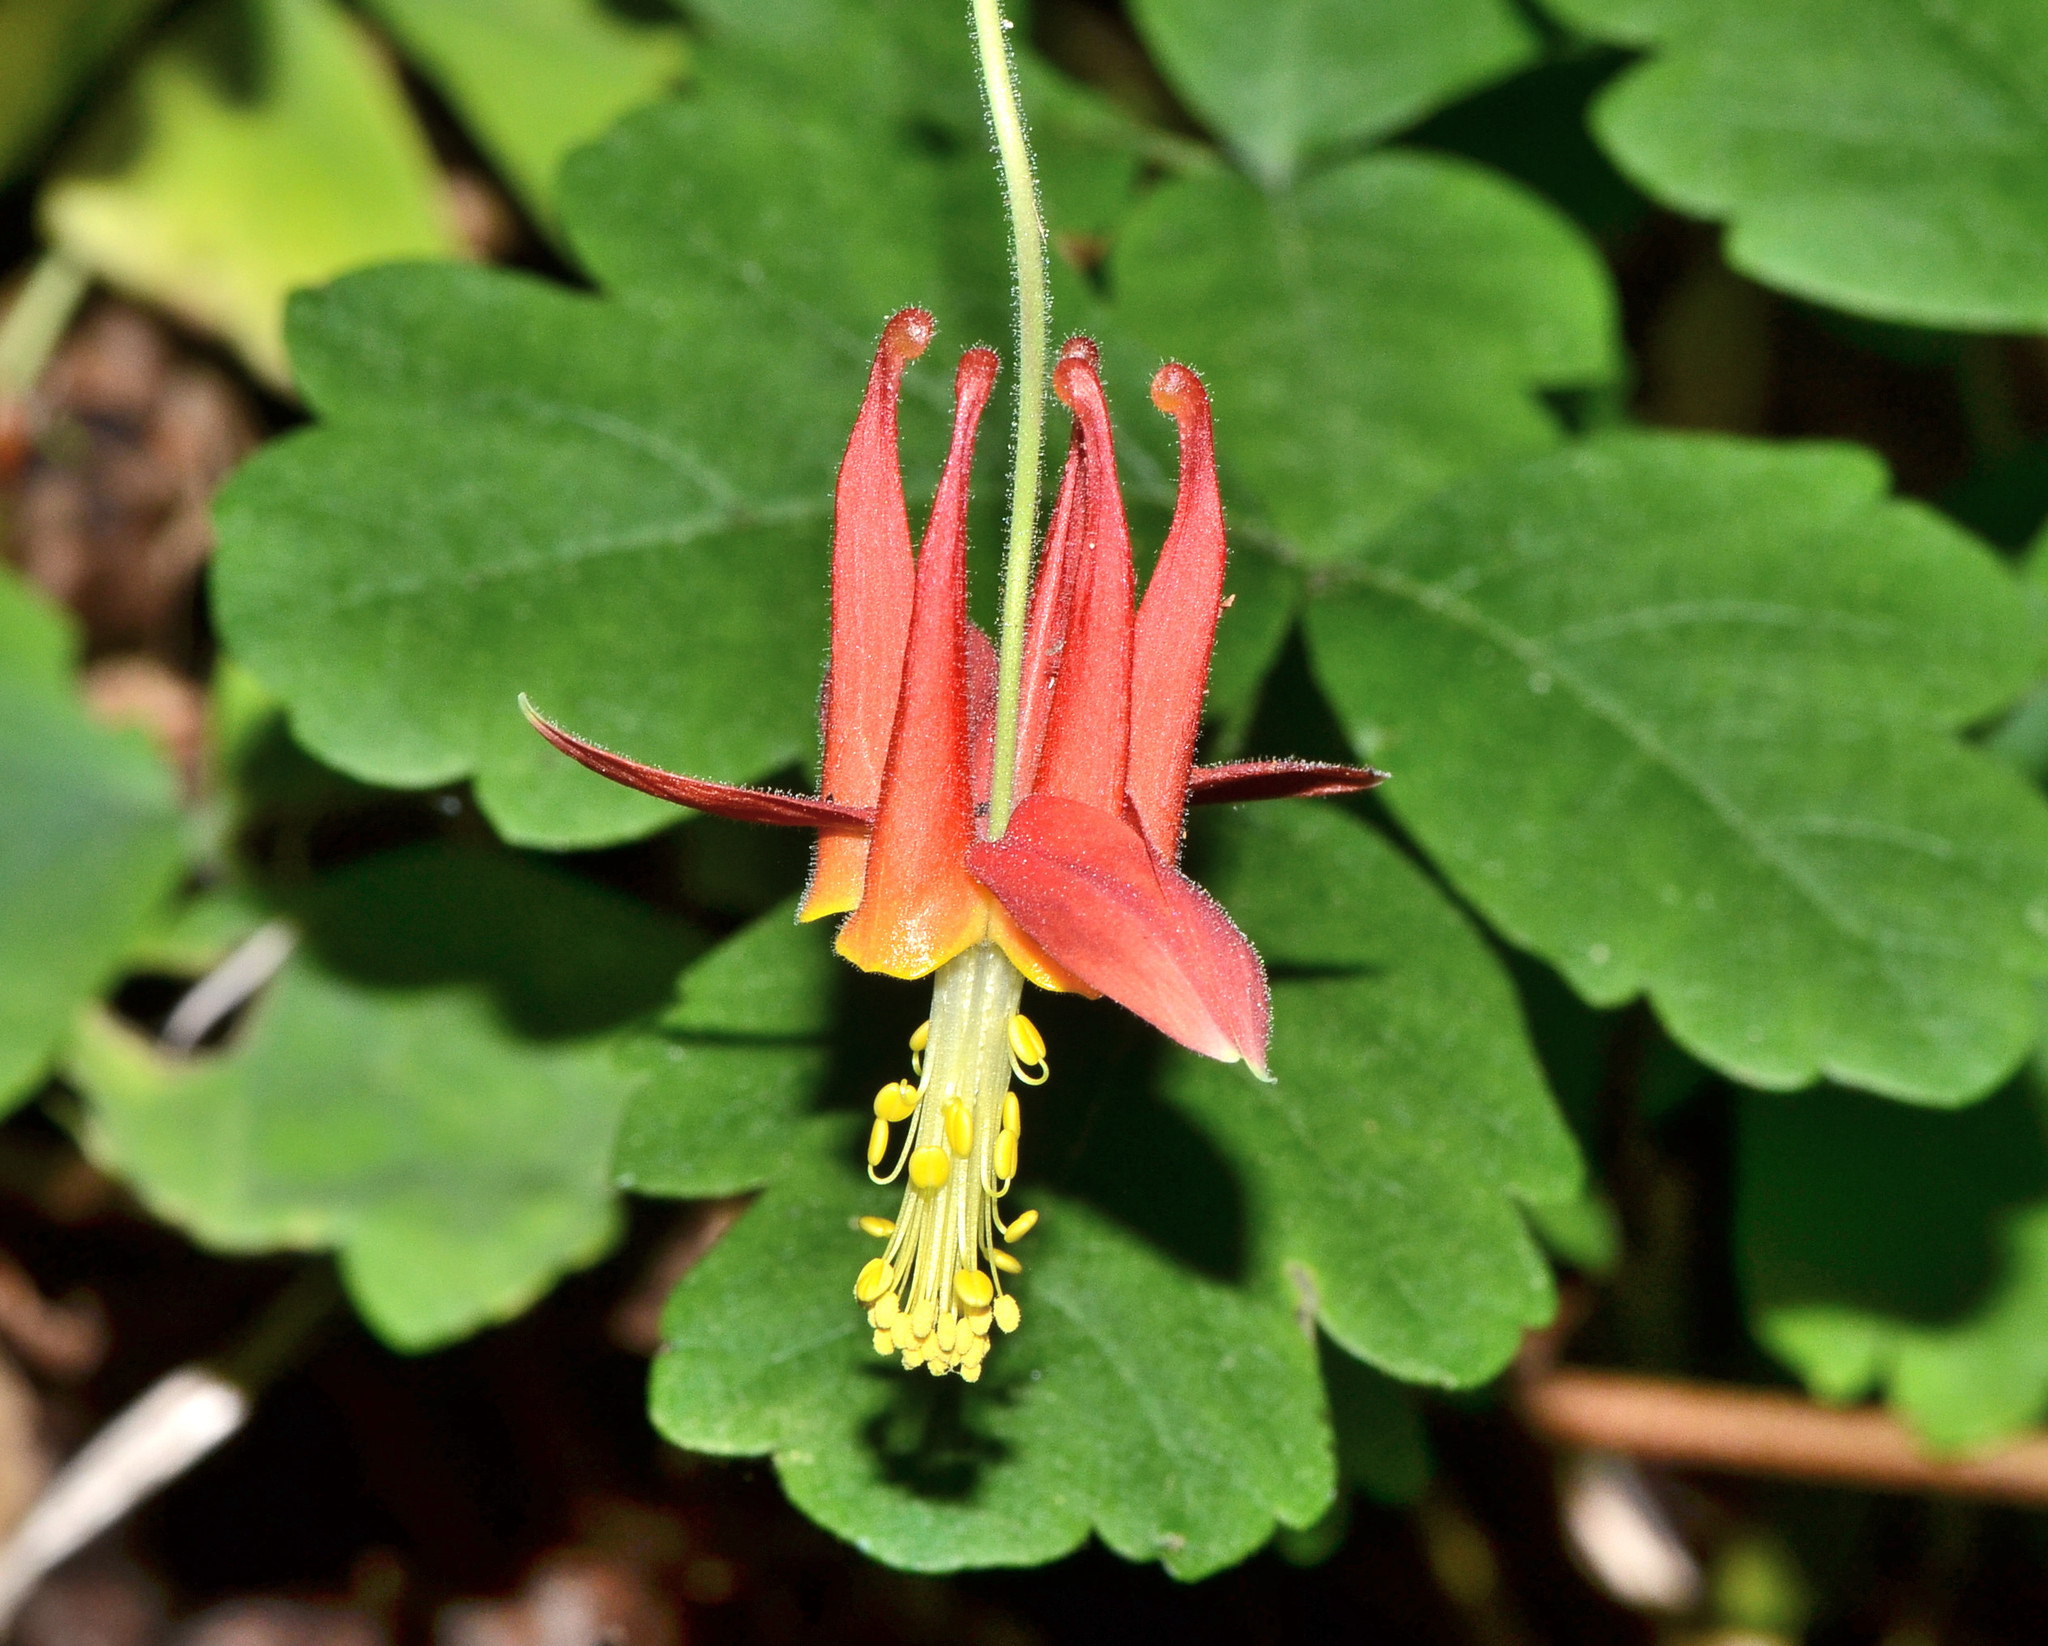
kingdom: Plantae
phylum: Tracheophyta
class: Magnoliopsida
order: Ranunculales
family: Ranunculaceae
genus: Aquilegia
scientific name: Aquilegia formosa
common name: Sitka columbine
